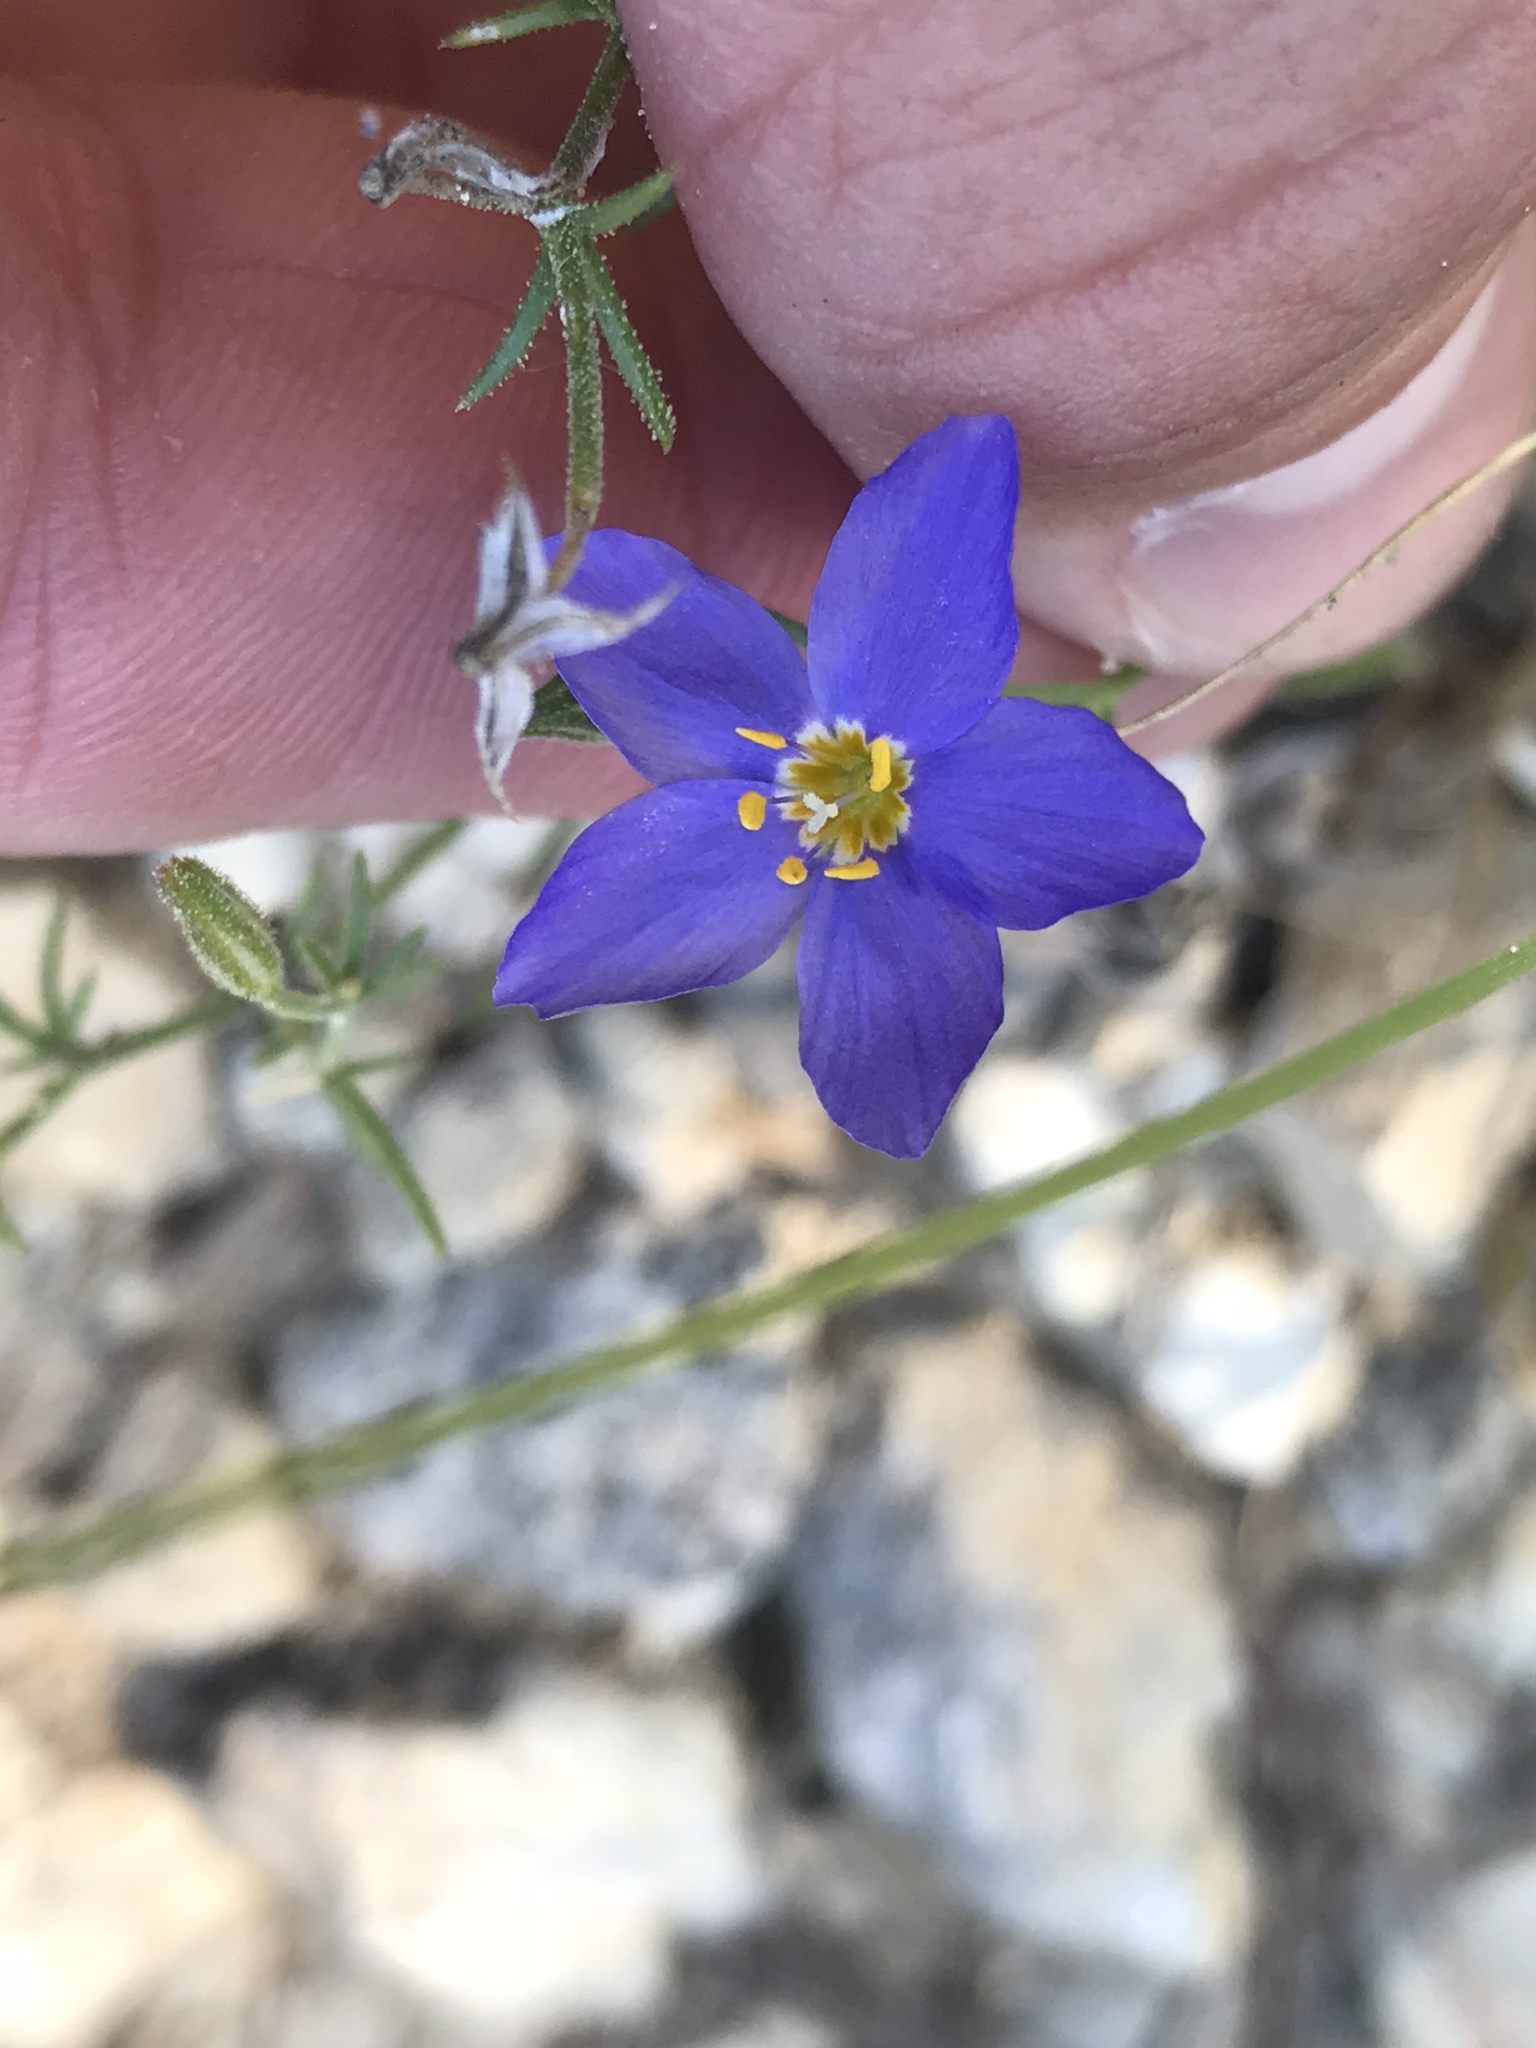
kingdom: Plantae
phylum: Tracheophyta
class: Magnoliopsida
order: Ericales
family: Polemoniaceae
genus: Giliastrum
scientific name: Giliastrum rigidulum
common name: Bluebowls
